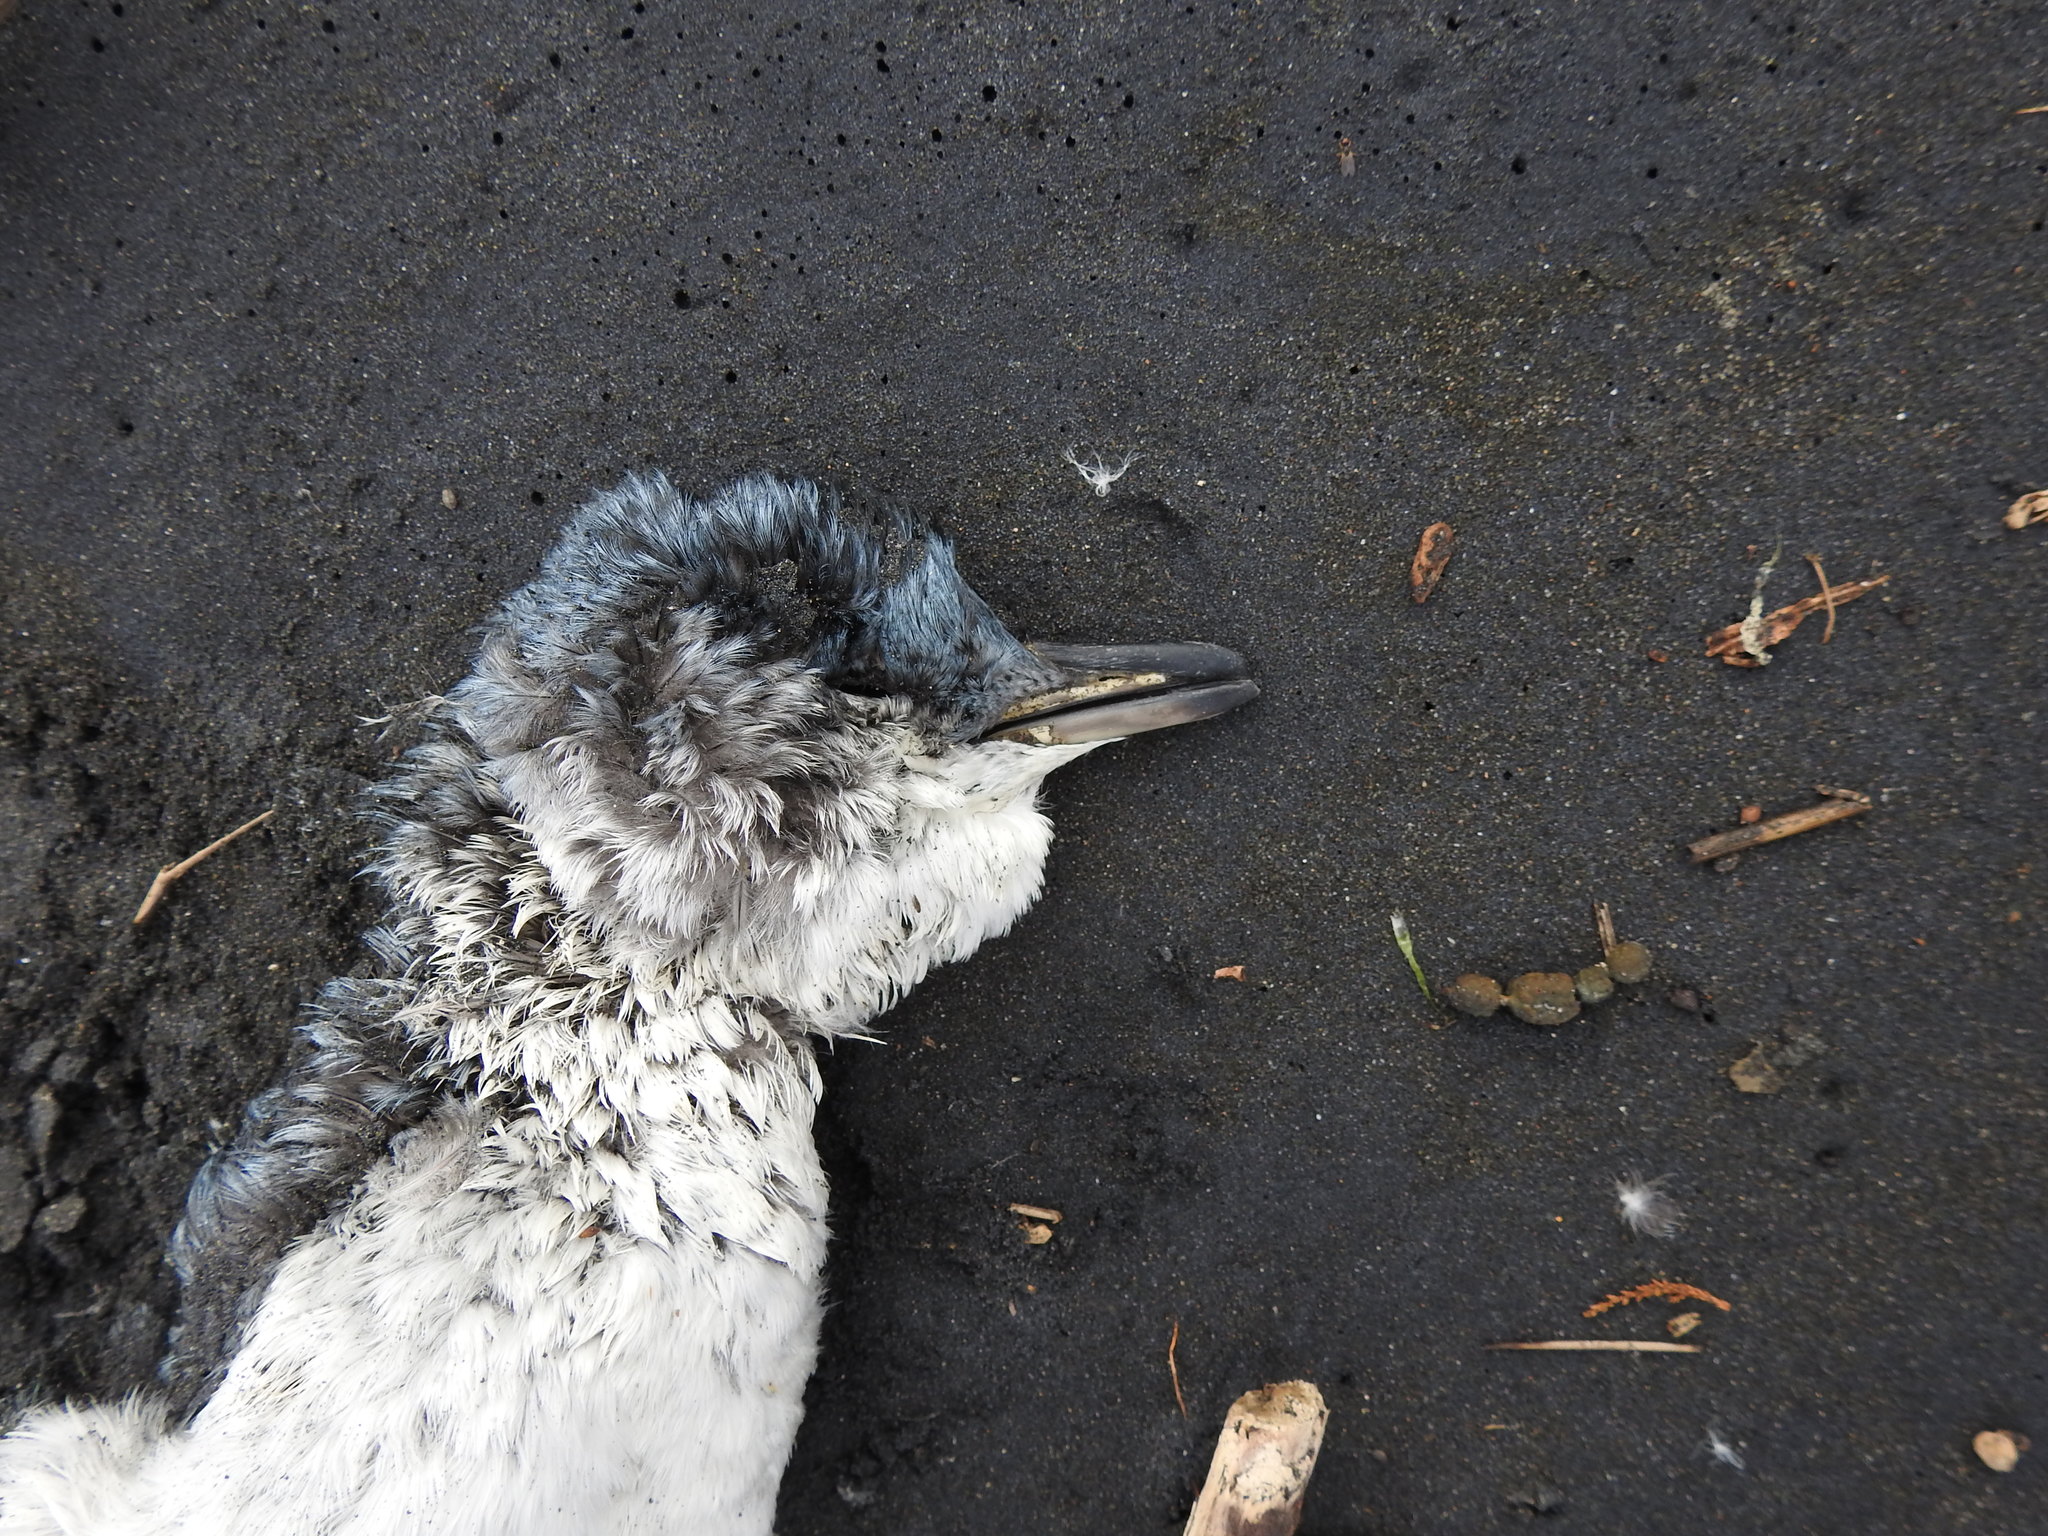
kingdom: Animalia
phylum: Chordata
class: Aves
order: Sphenisciformes
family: Spheniscidae
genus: Eudyptula
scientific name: Eudyptula minor
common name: Little penguin
